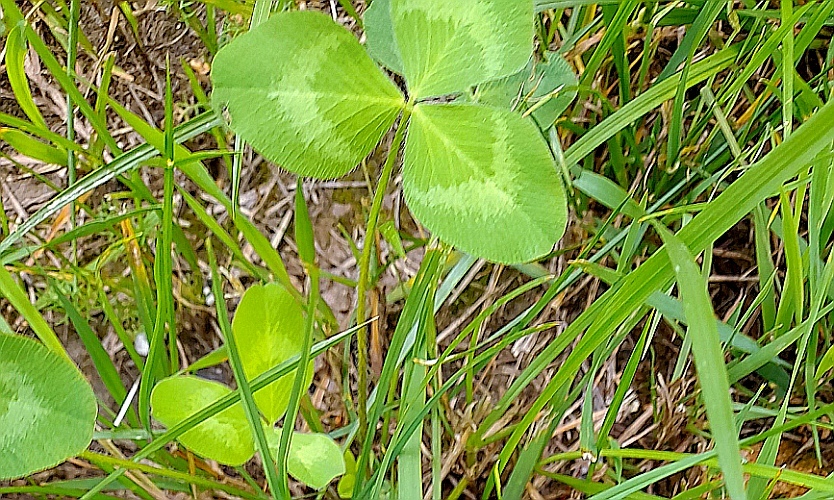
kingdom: Plantae
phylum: Tracheophyta
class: Magnoliopsida
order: Fabales
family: Fabaceae
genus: Trifolium
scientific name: Trifolium pratense
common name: Red clover
